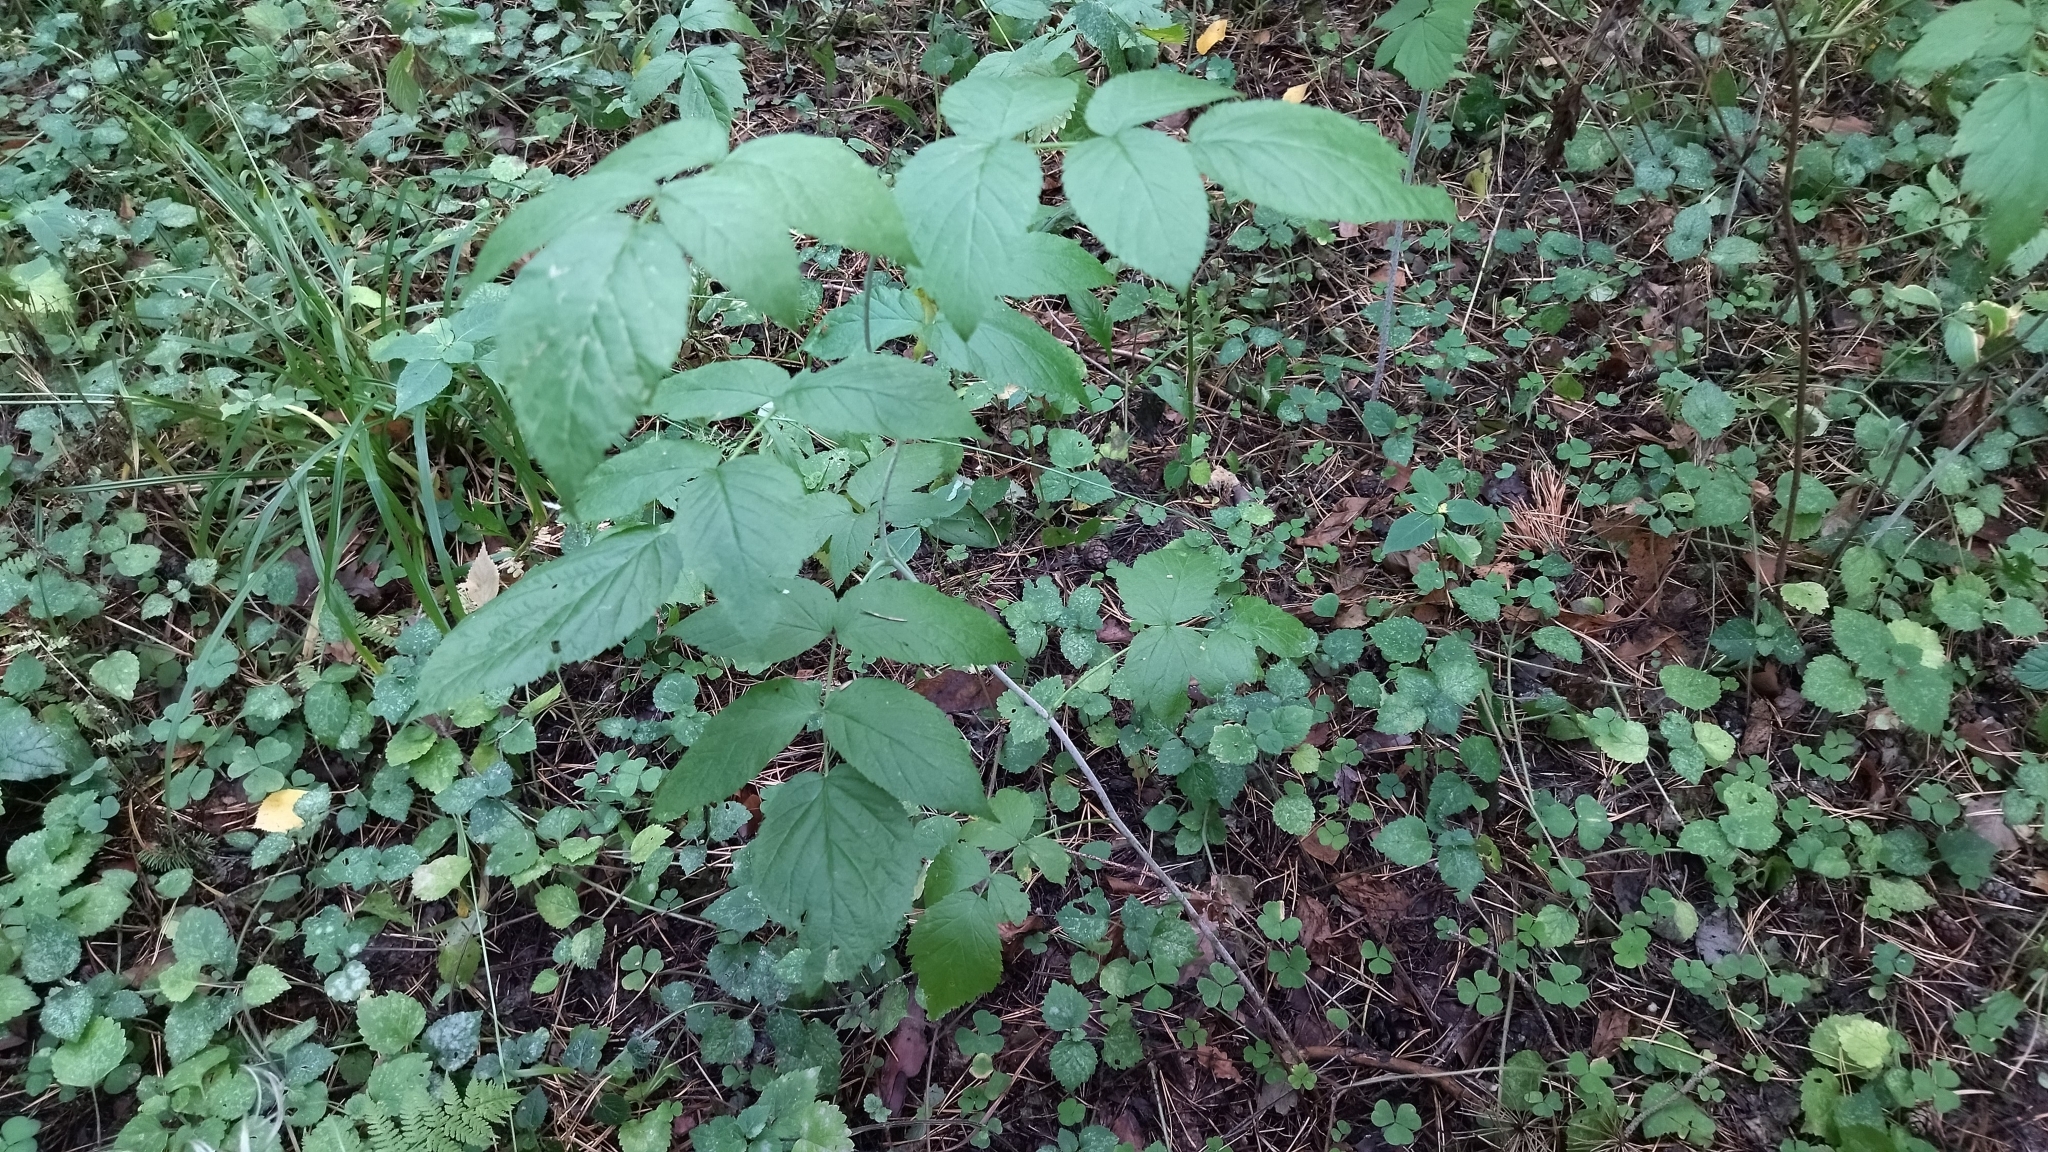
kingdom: Plantae
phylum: Tracheophyta
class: Magnoliopsida
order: Rosales
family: Rosaceae
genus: Rubus
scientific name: Rubus idaeus
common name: Raspberry
